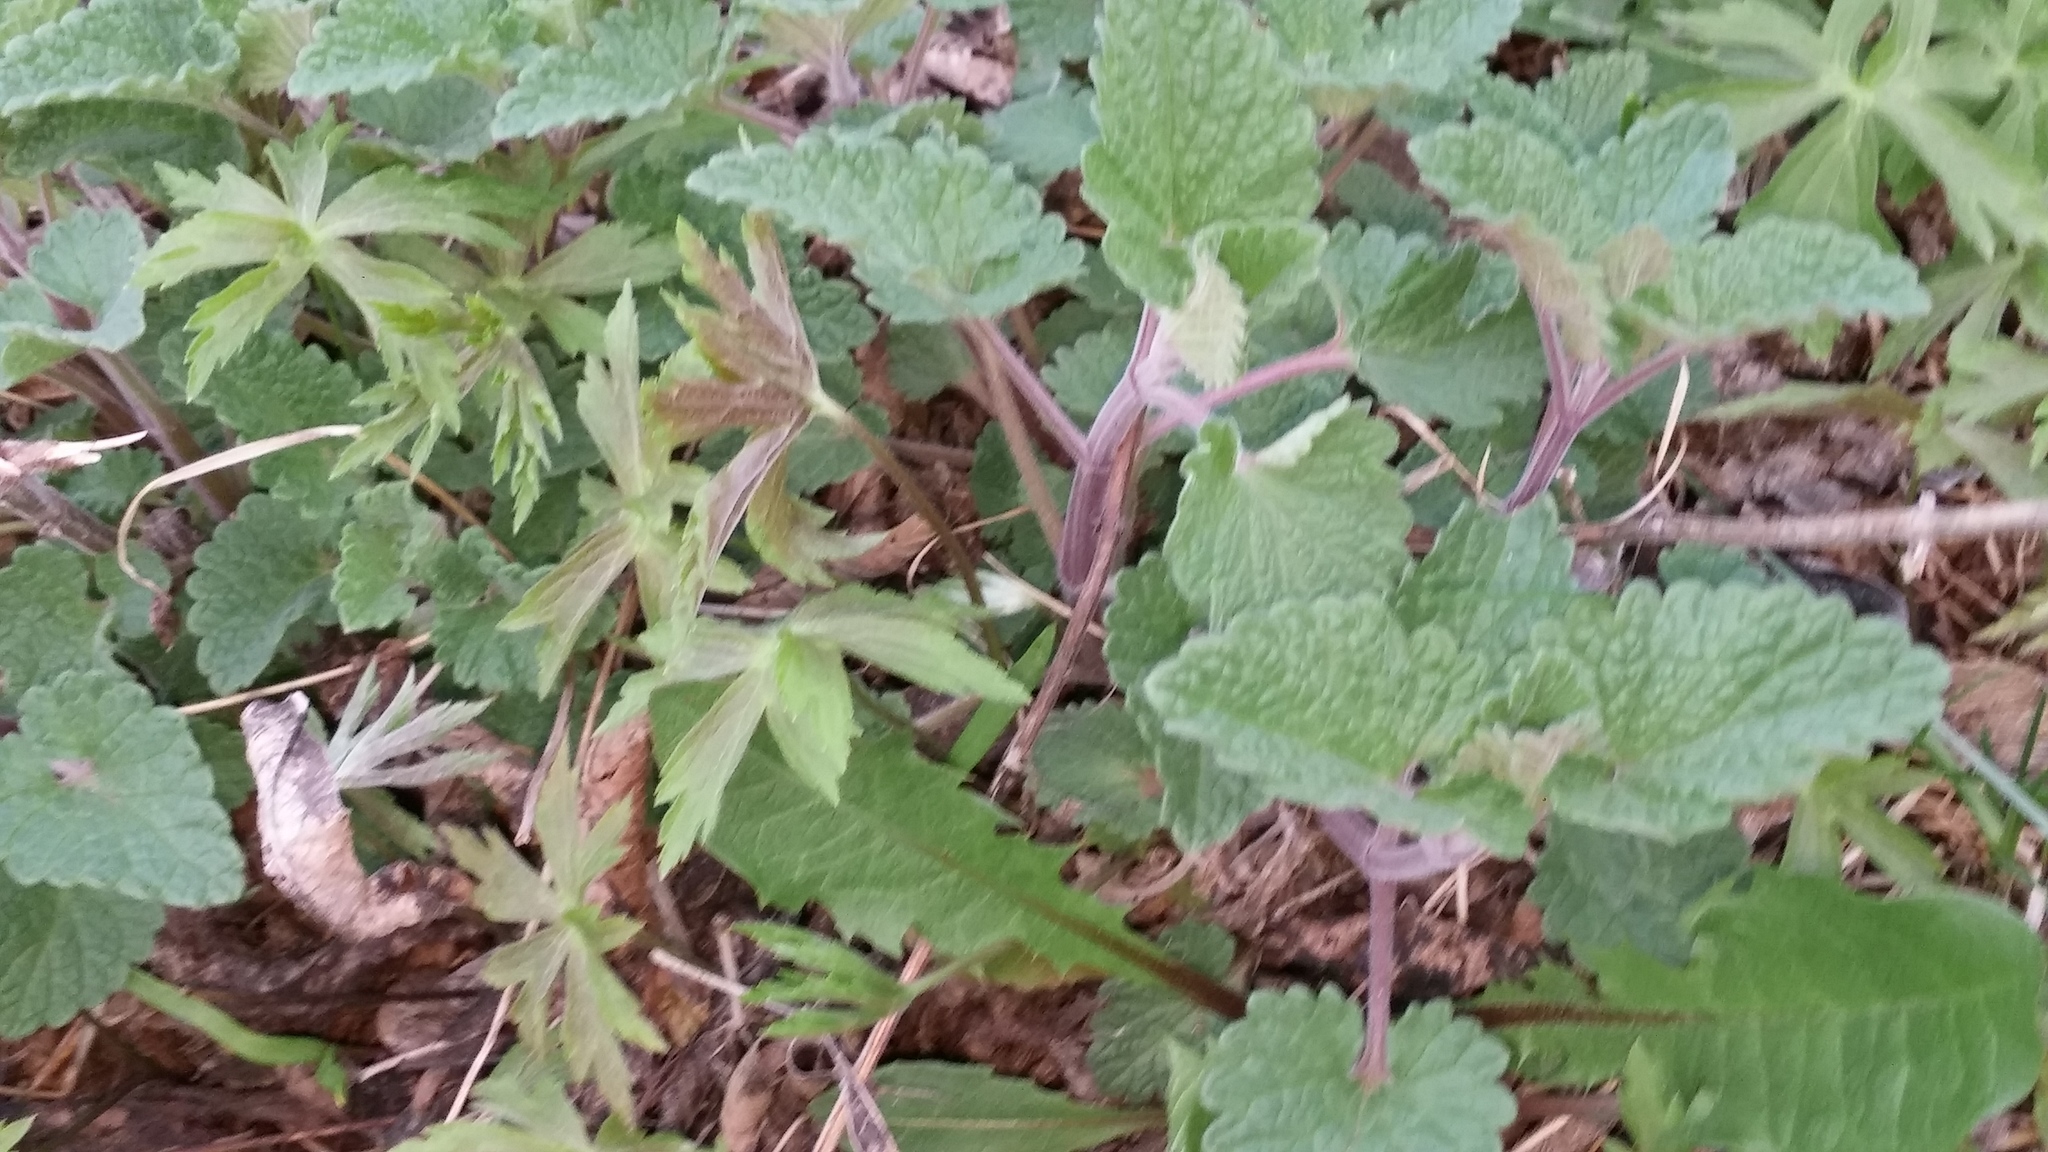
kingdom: Plantae
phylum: Tracheophyta
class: Magnoliopsida
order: Lamiales
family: Lamiaceae
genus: Nepeta
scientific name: Nepeta cataria
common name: Catnip
